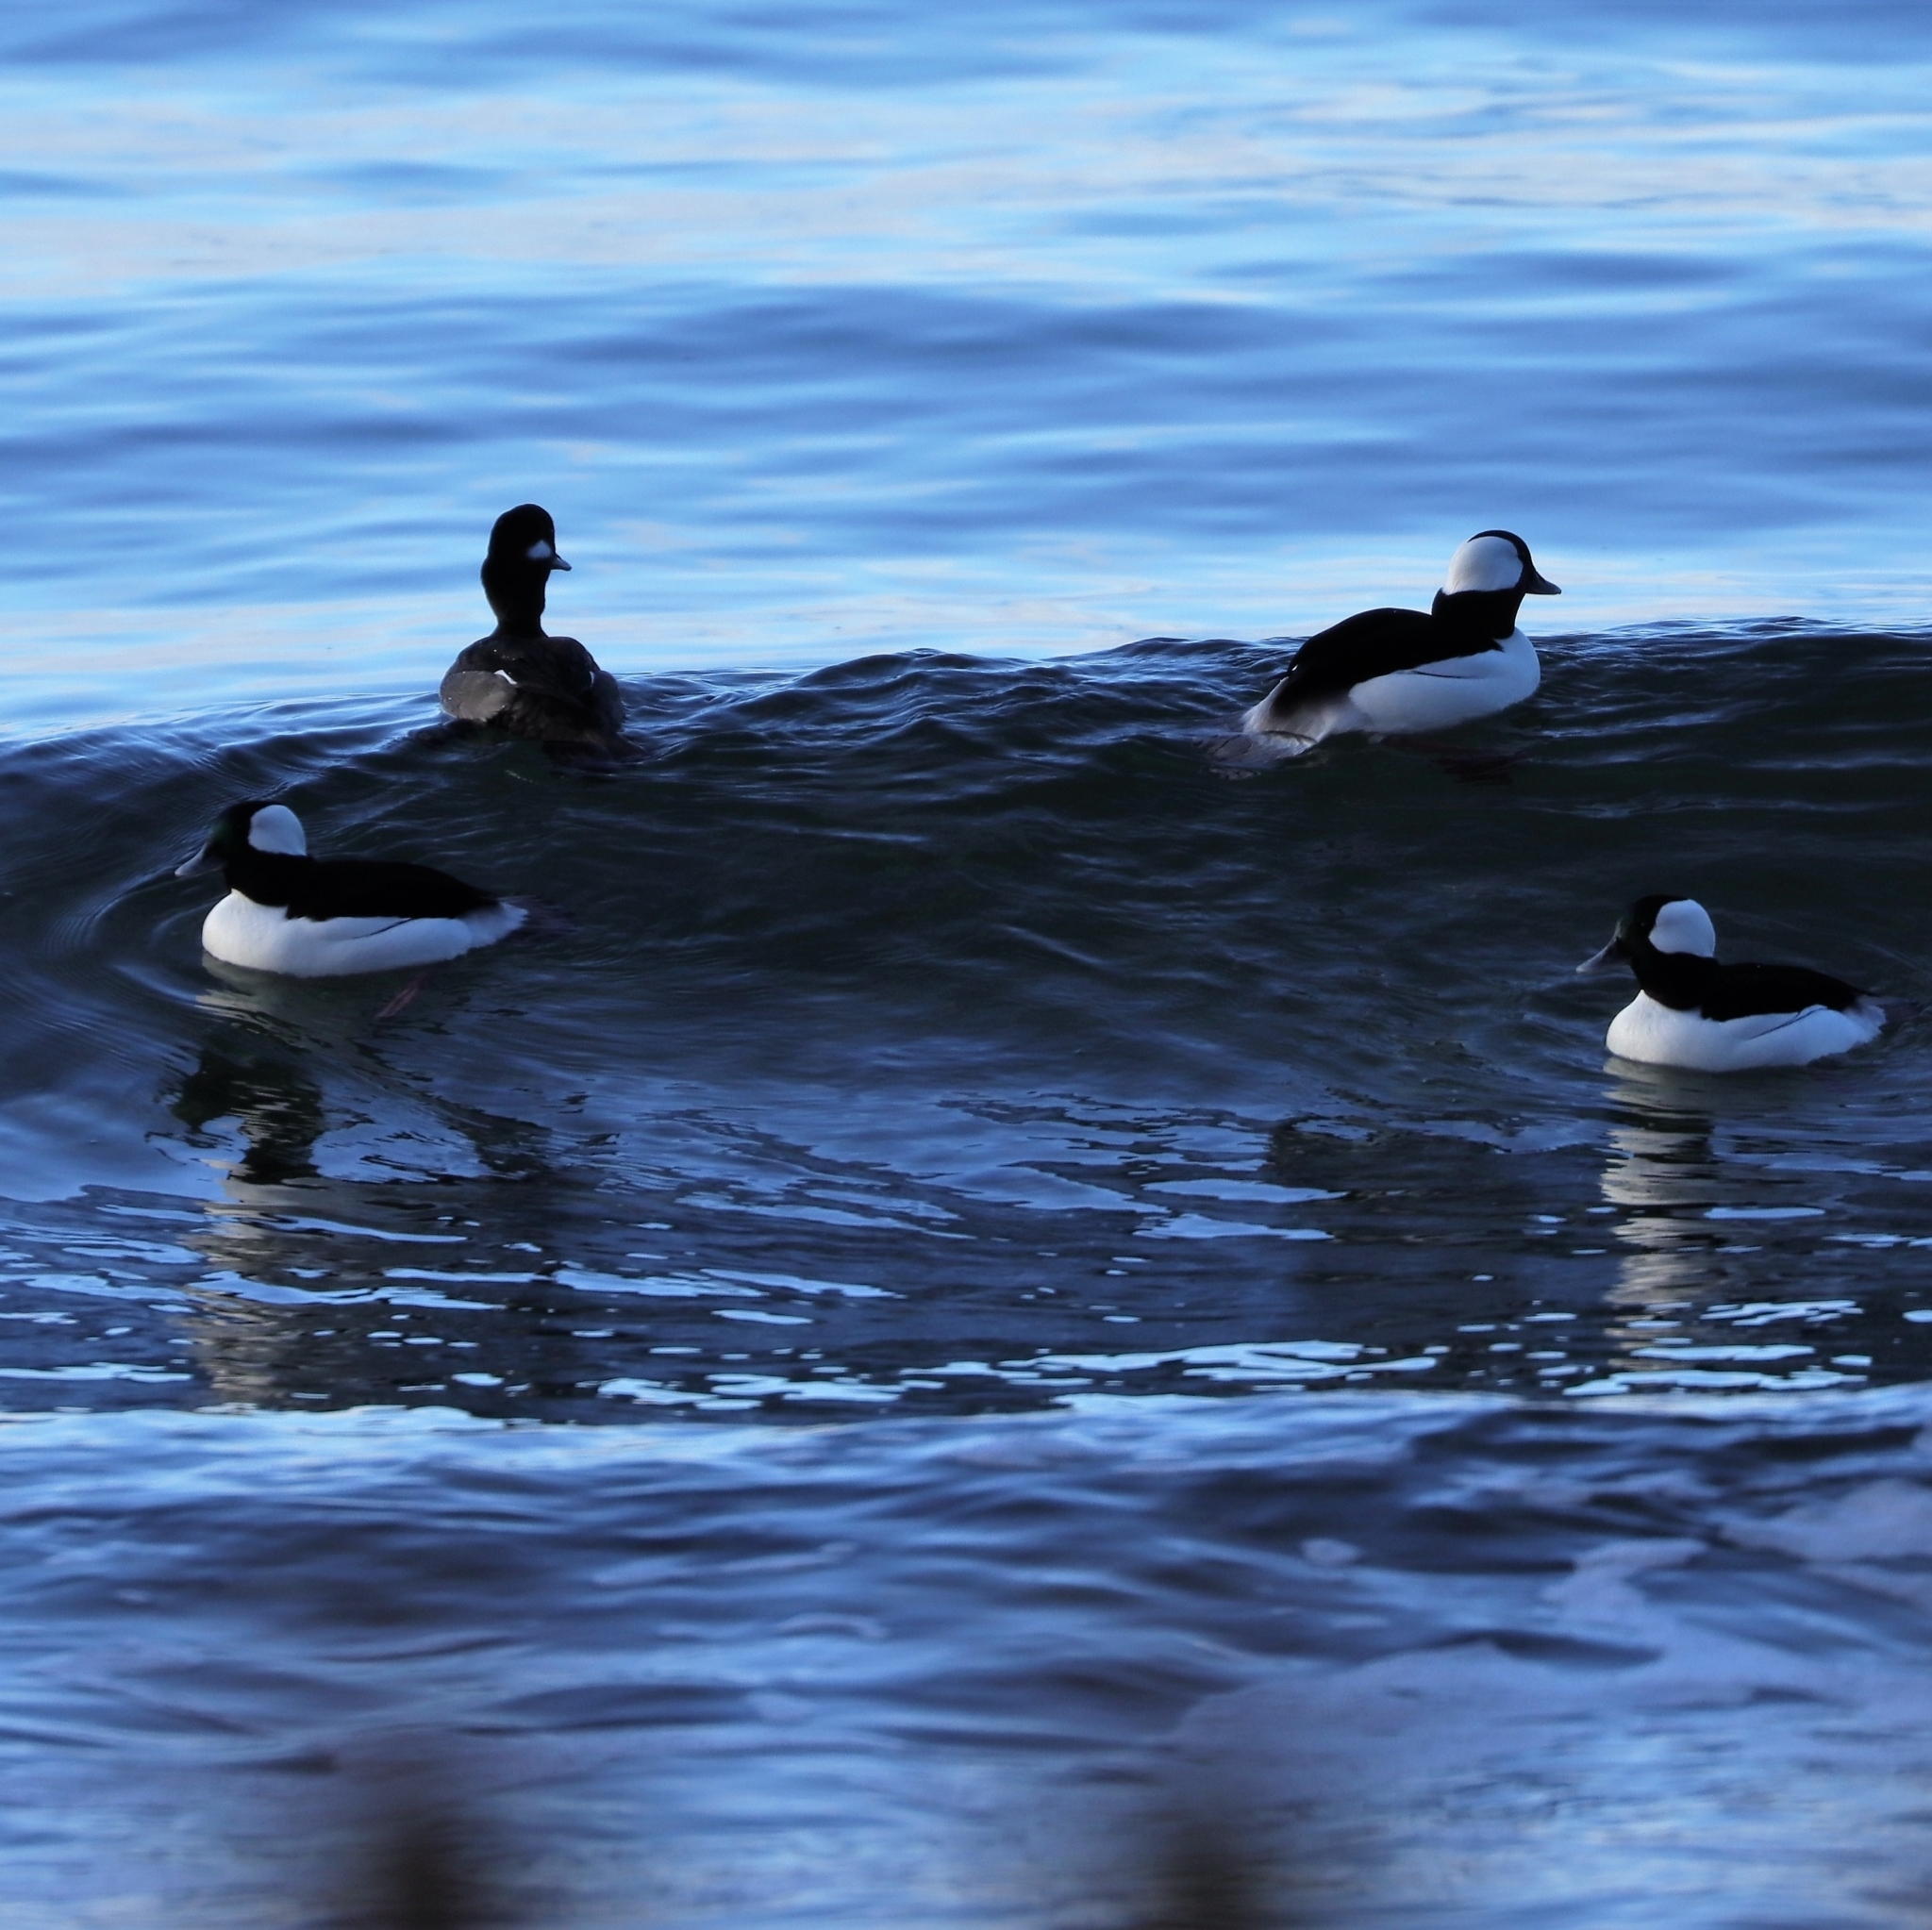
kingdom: Animalia
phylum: Chordata
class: Aves
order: Anseriformes
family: Anatidae
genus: Bucephala
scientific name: Bucephala albeola
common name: Bufflehead
